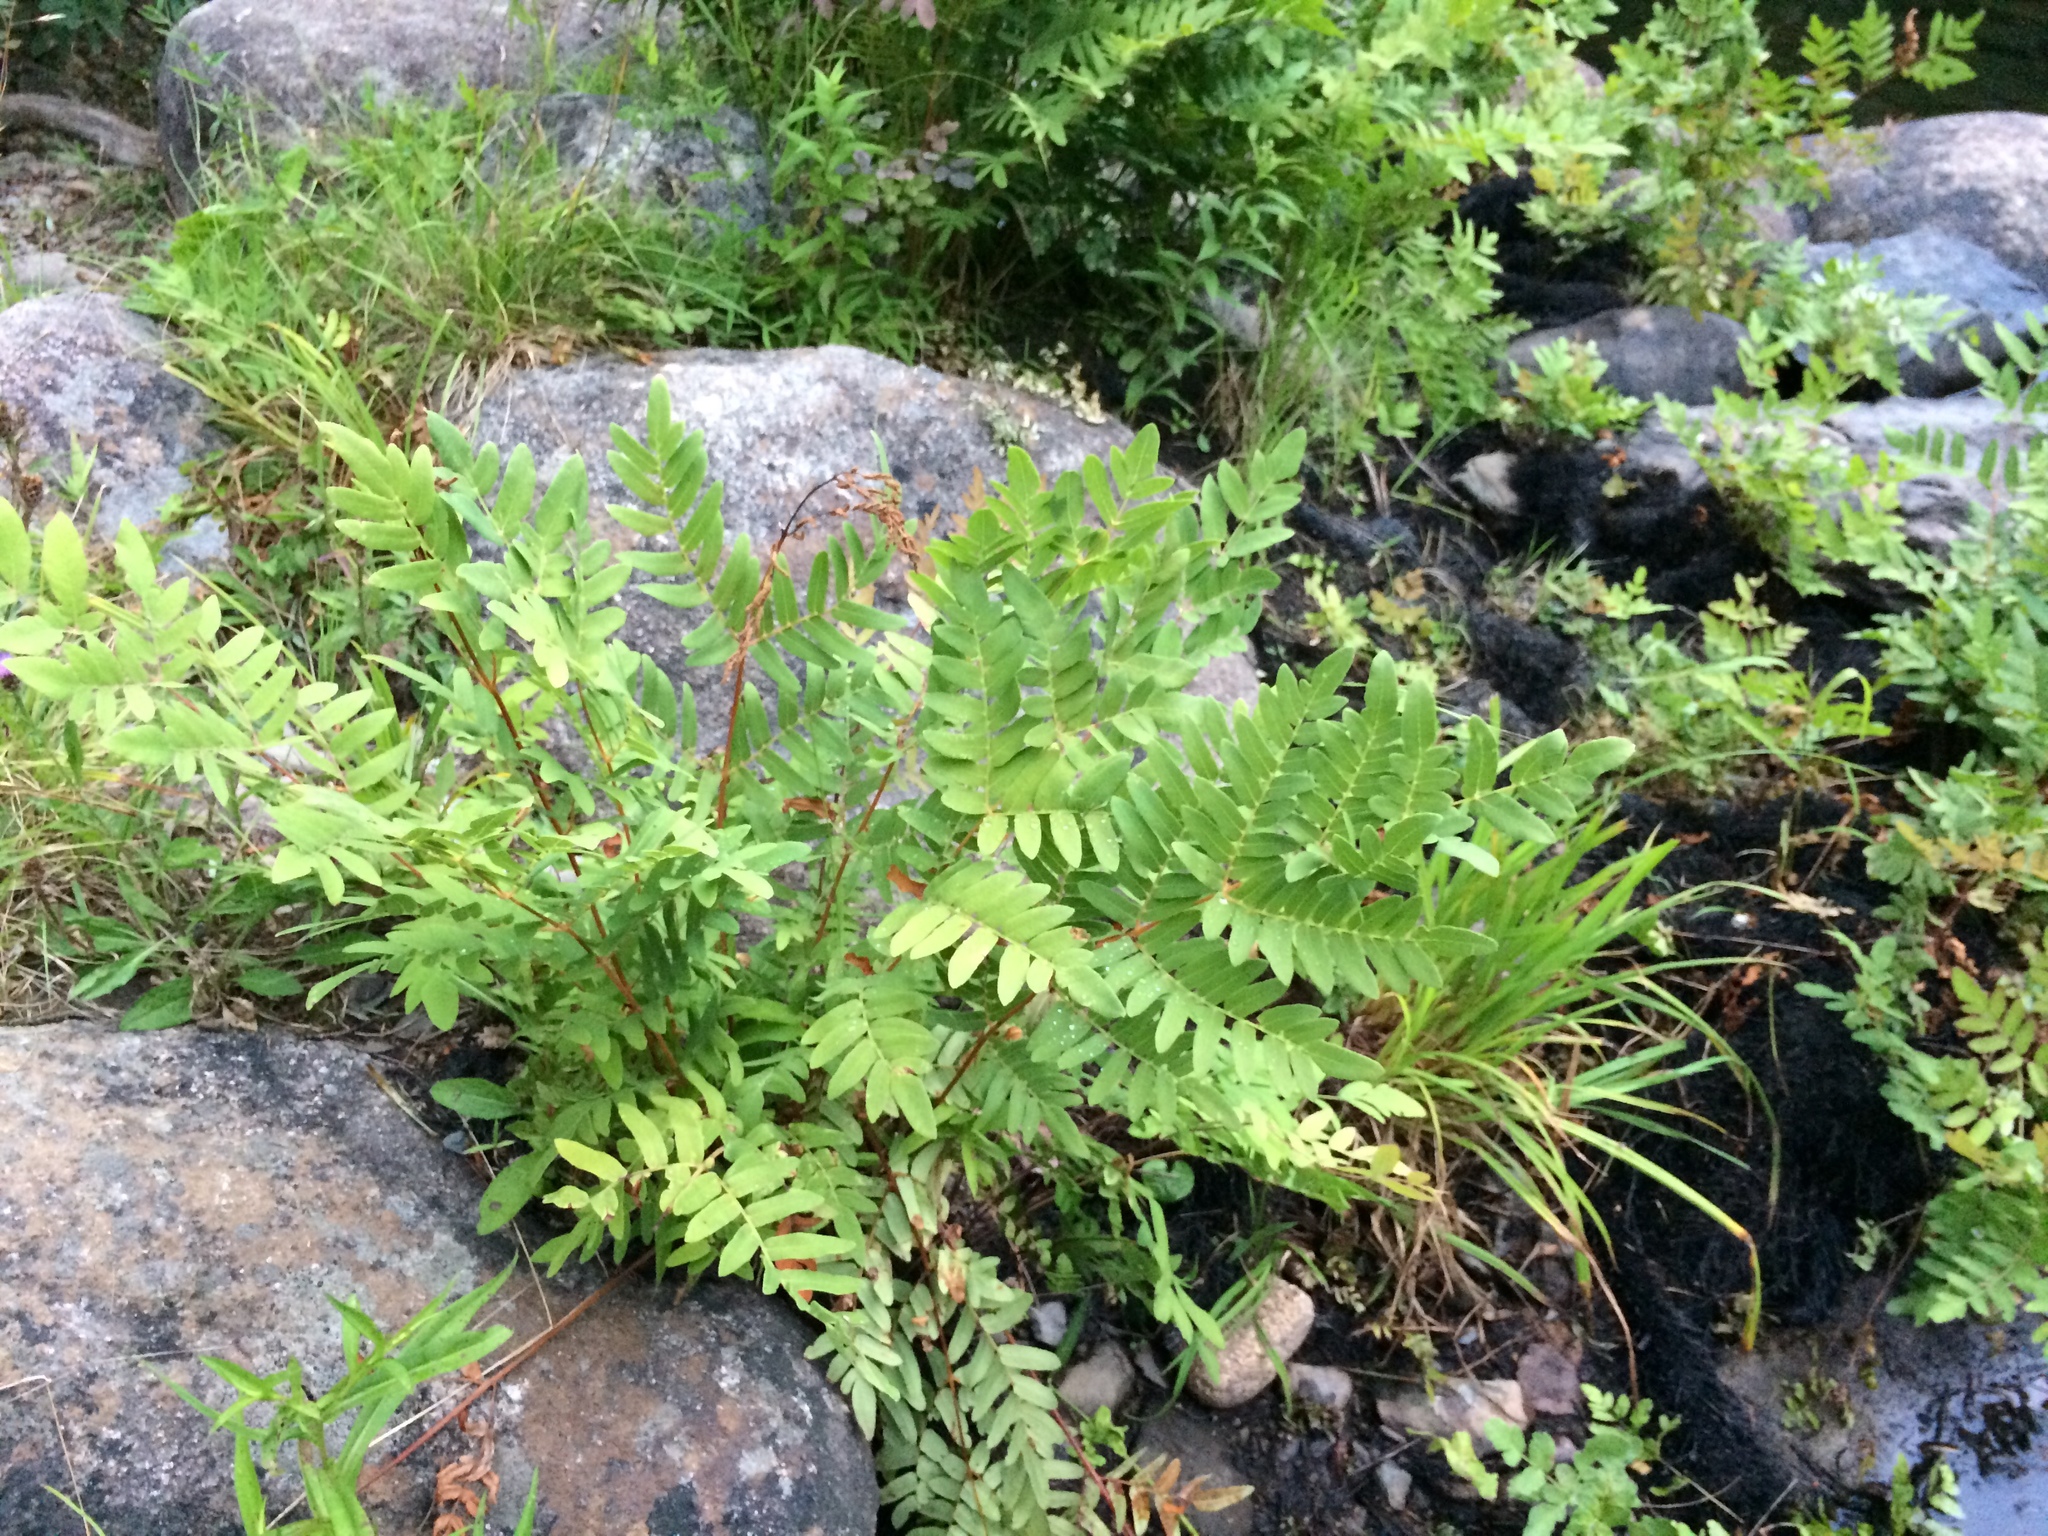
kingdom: Plantae
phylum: Tracheophyta
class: Polypodiopsida
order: Osmundales
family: Osmundaceae
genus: Osmunda
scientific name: Osmunda spectabilis
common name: American royal fern
